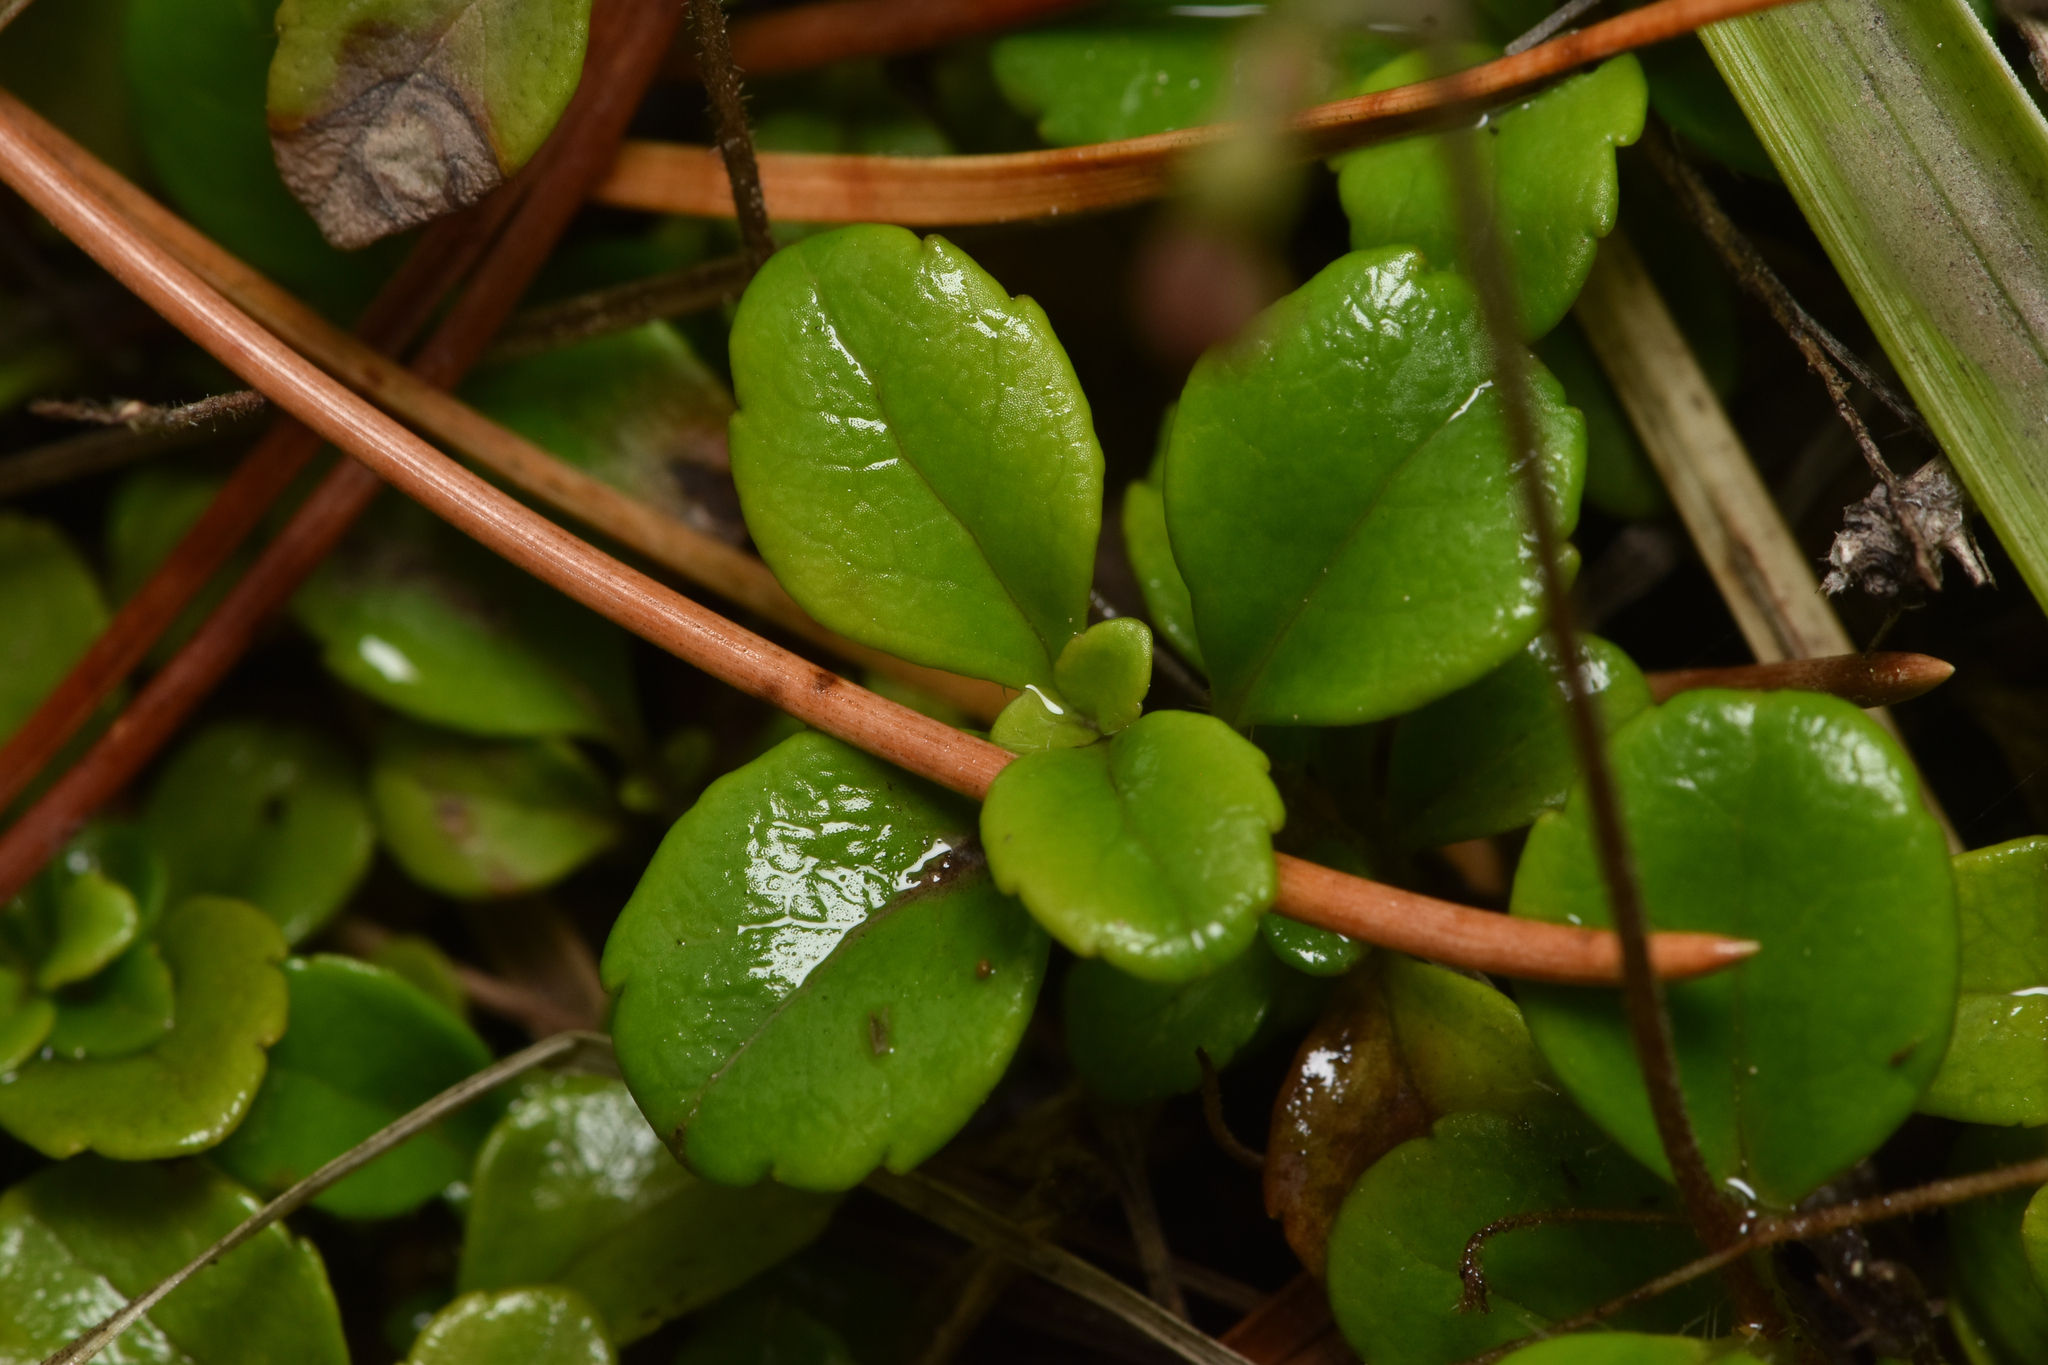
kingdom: Plantae
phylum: Tracheophyta
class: Magnoliopsida
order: Dipsacales
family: Caprifoliaceae
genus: Linnaea
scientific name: Linnaea borealis
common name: Twinflower
